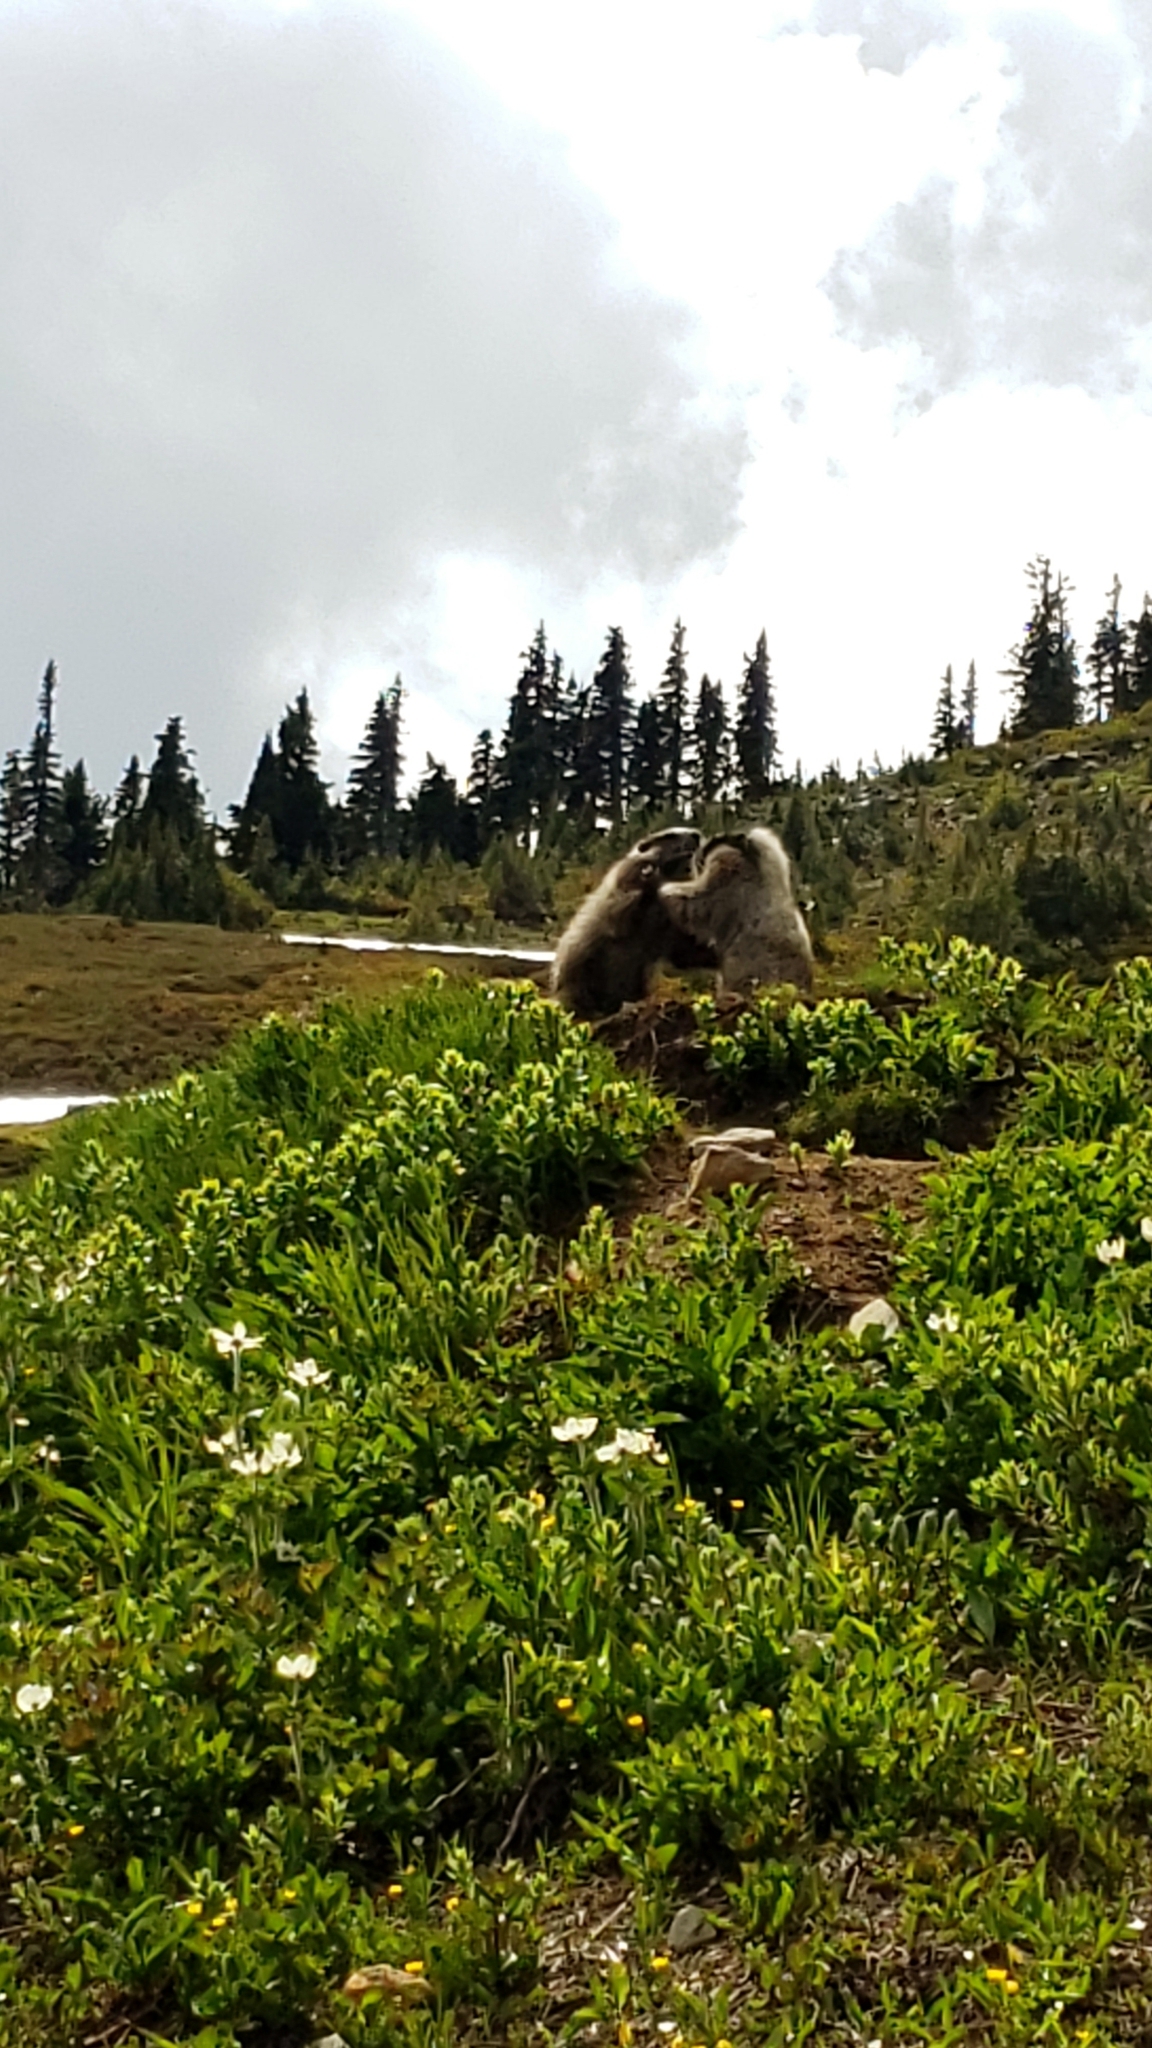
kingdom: Animalia
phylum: Chordata
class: Mammalia
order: Rodentia
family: Sciuridae
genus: Marmota
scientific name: Marmota caligata
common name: Hoary marmot
